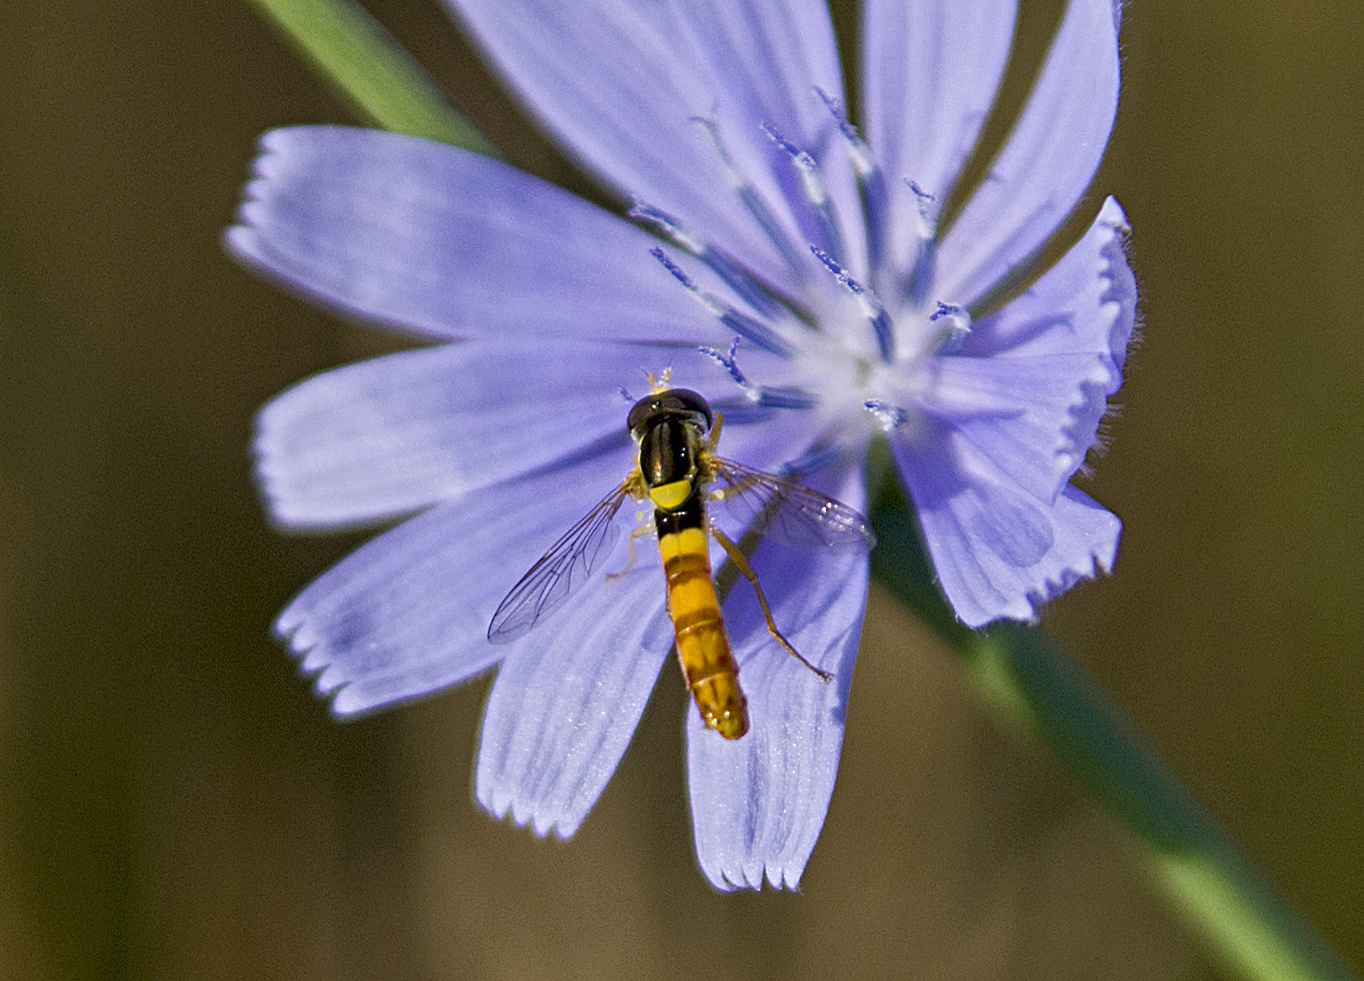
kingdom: Animalia
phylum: Arthropoda
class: Insecta
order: Diptera
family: Syrphidae
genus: Sphaerophoria
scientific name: Sphaerophoria scripta
